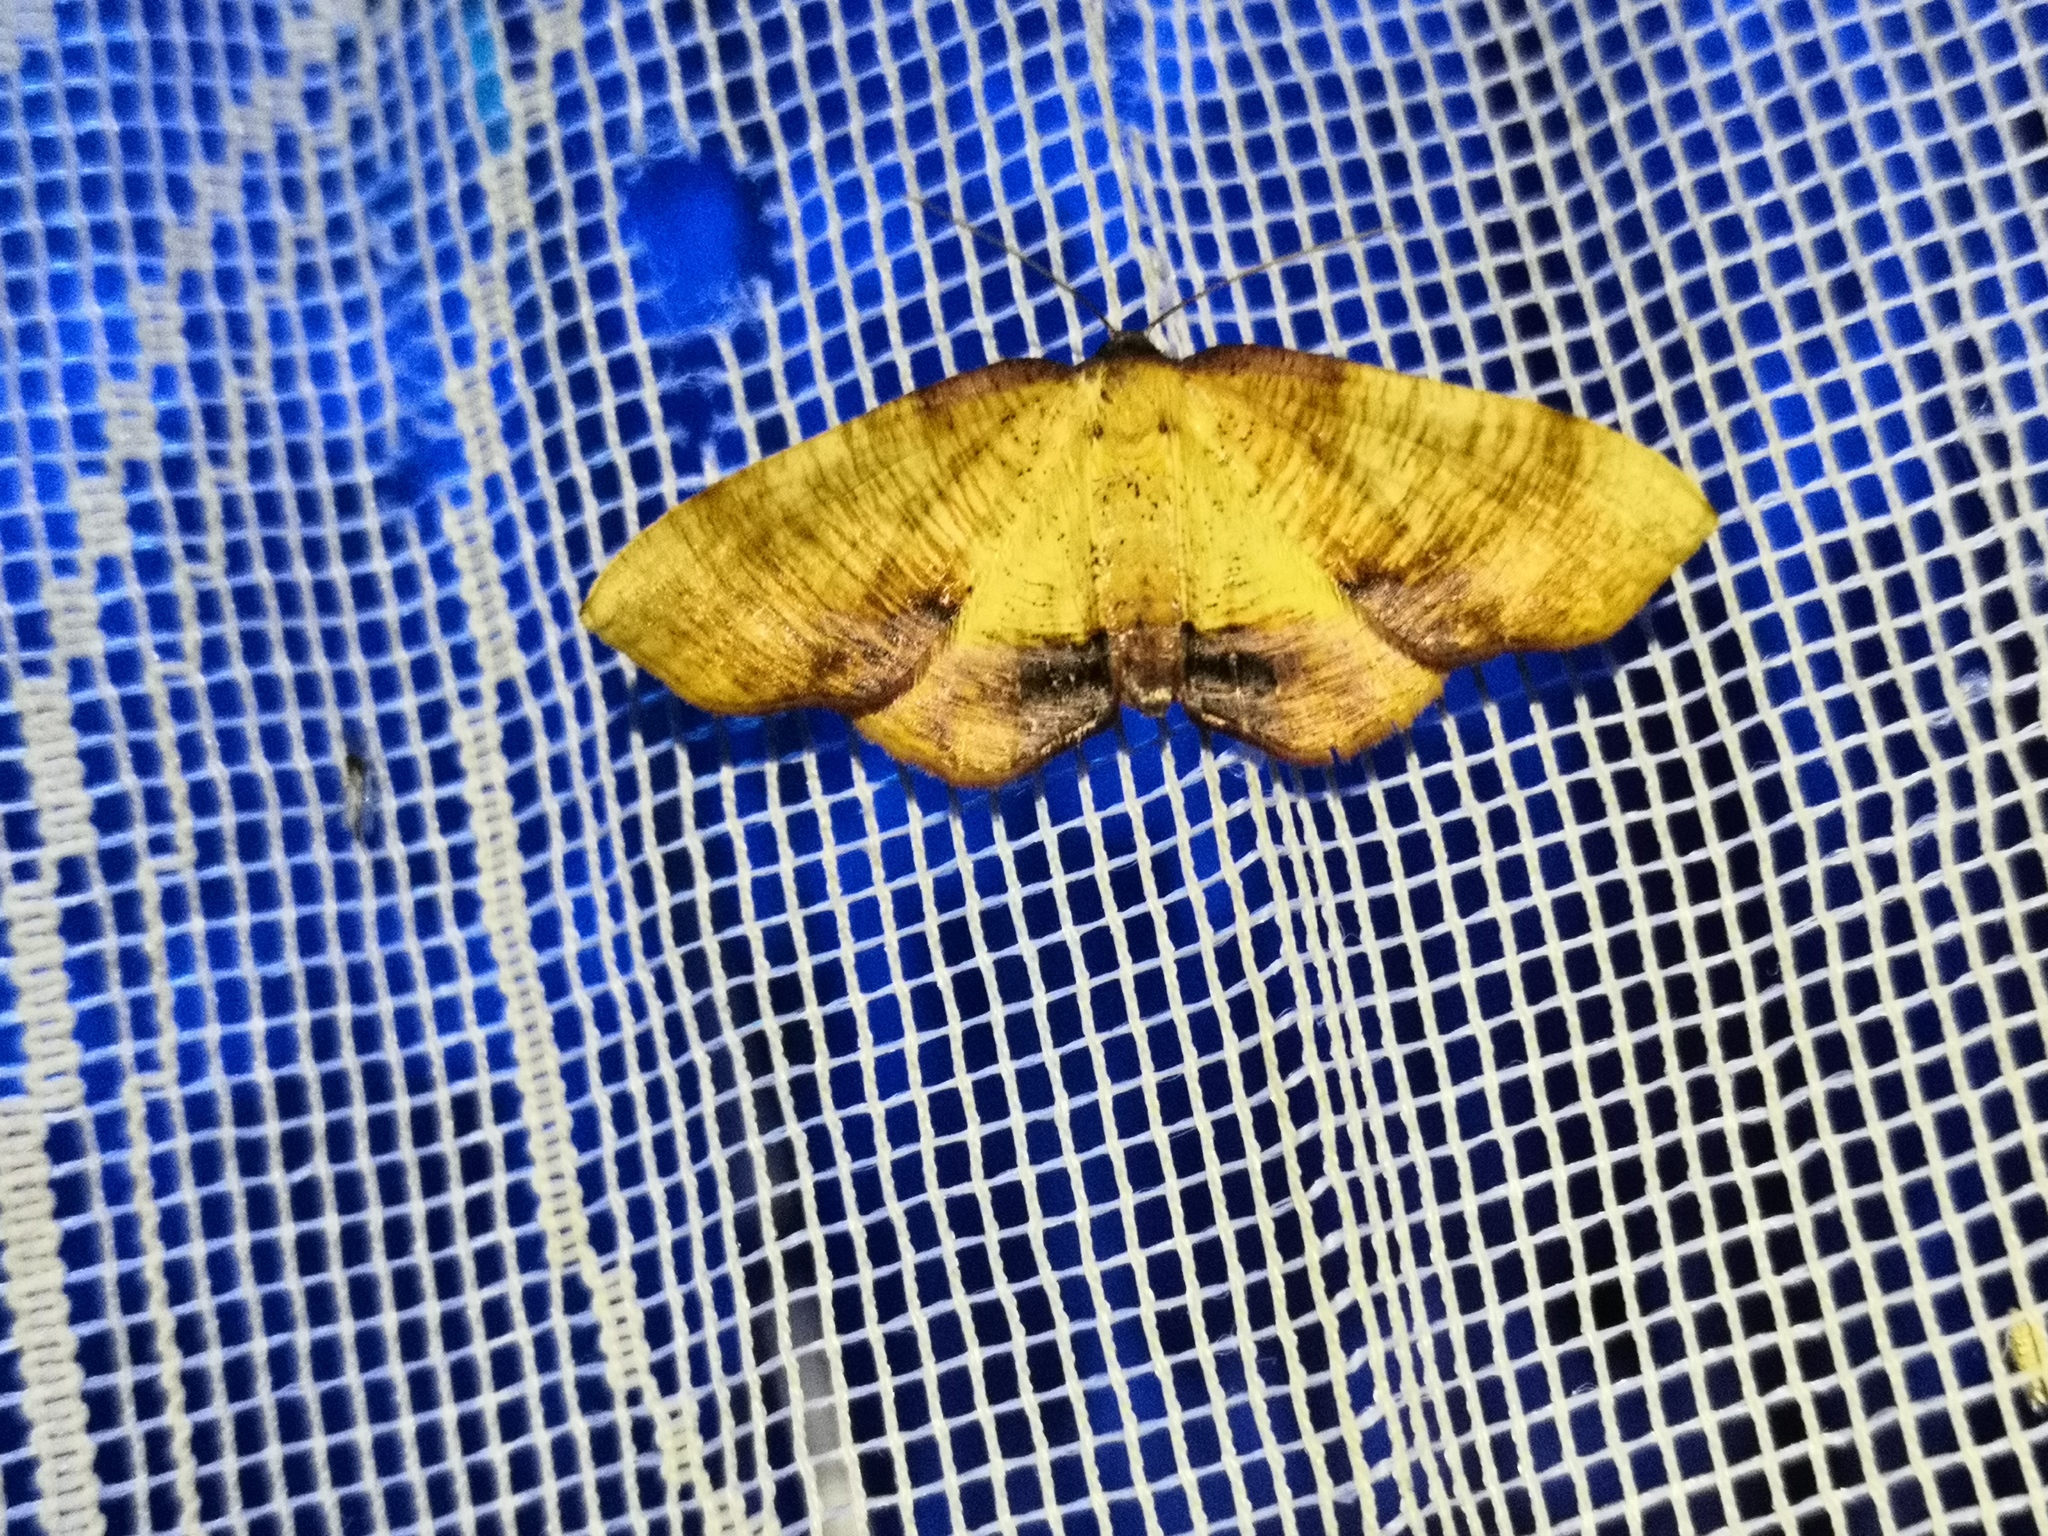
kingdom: Animalia
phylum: Arthropoda
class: Insecta
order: Lepidoptera
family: Geometridae
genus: Plagodis
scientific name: Plagodis dolabraria
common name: Scorched wing
